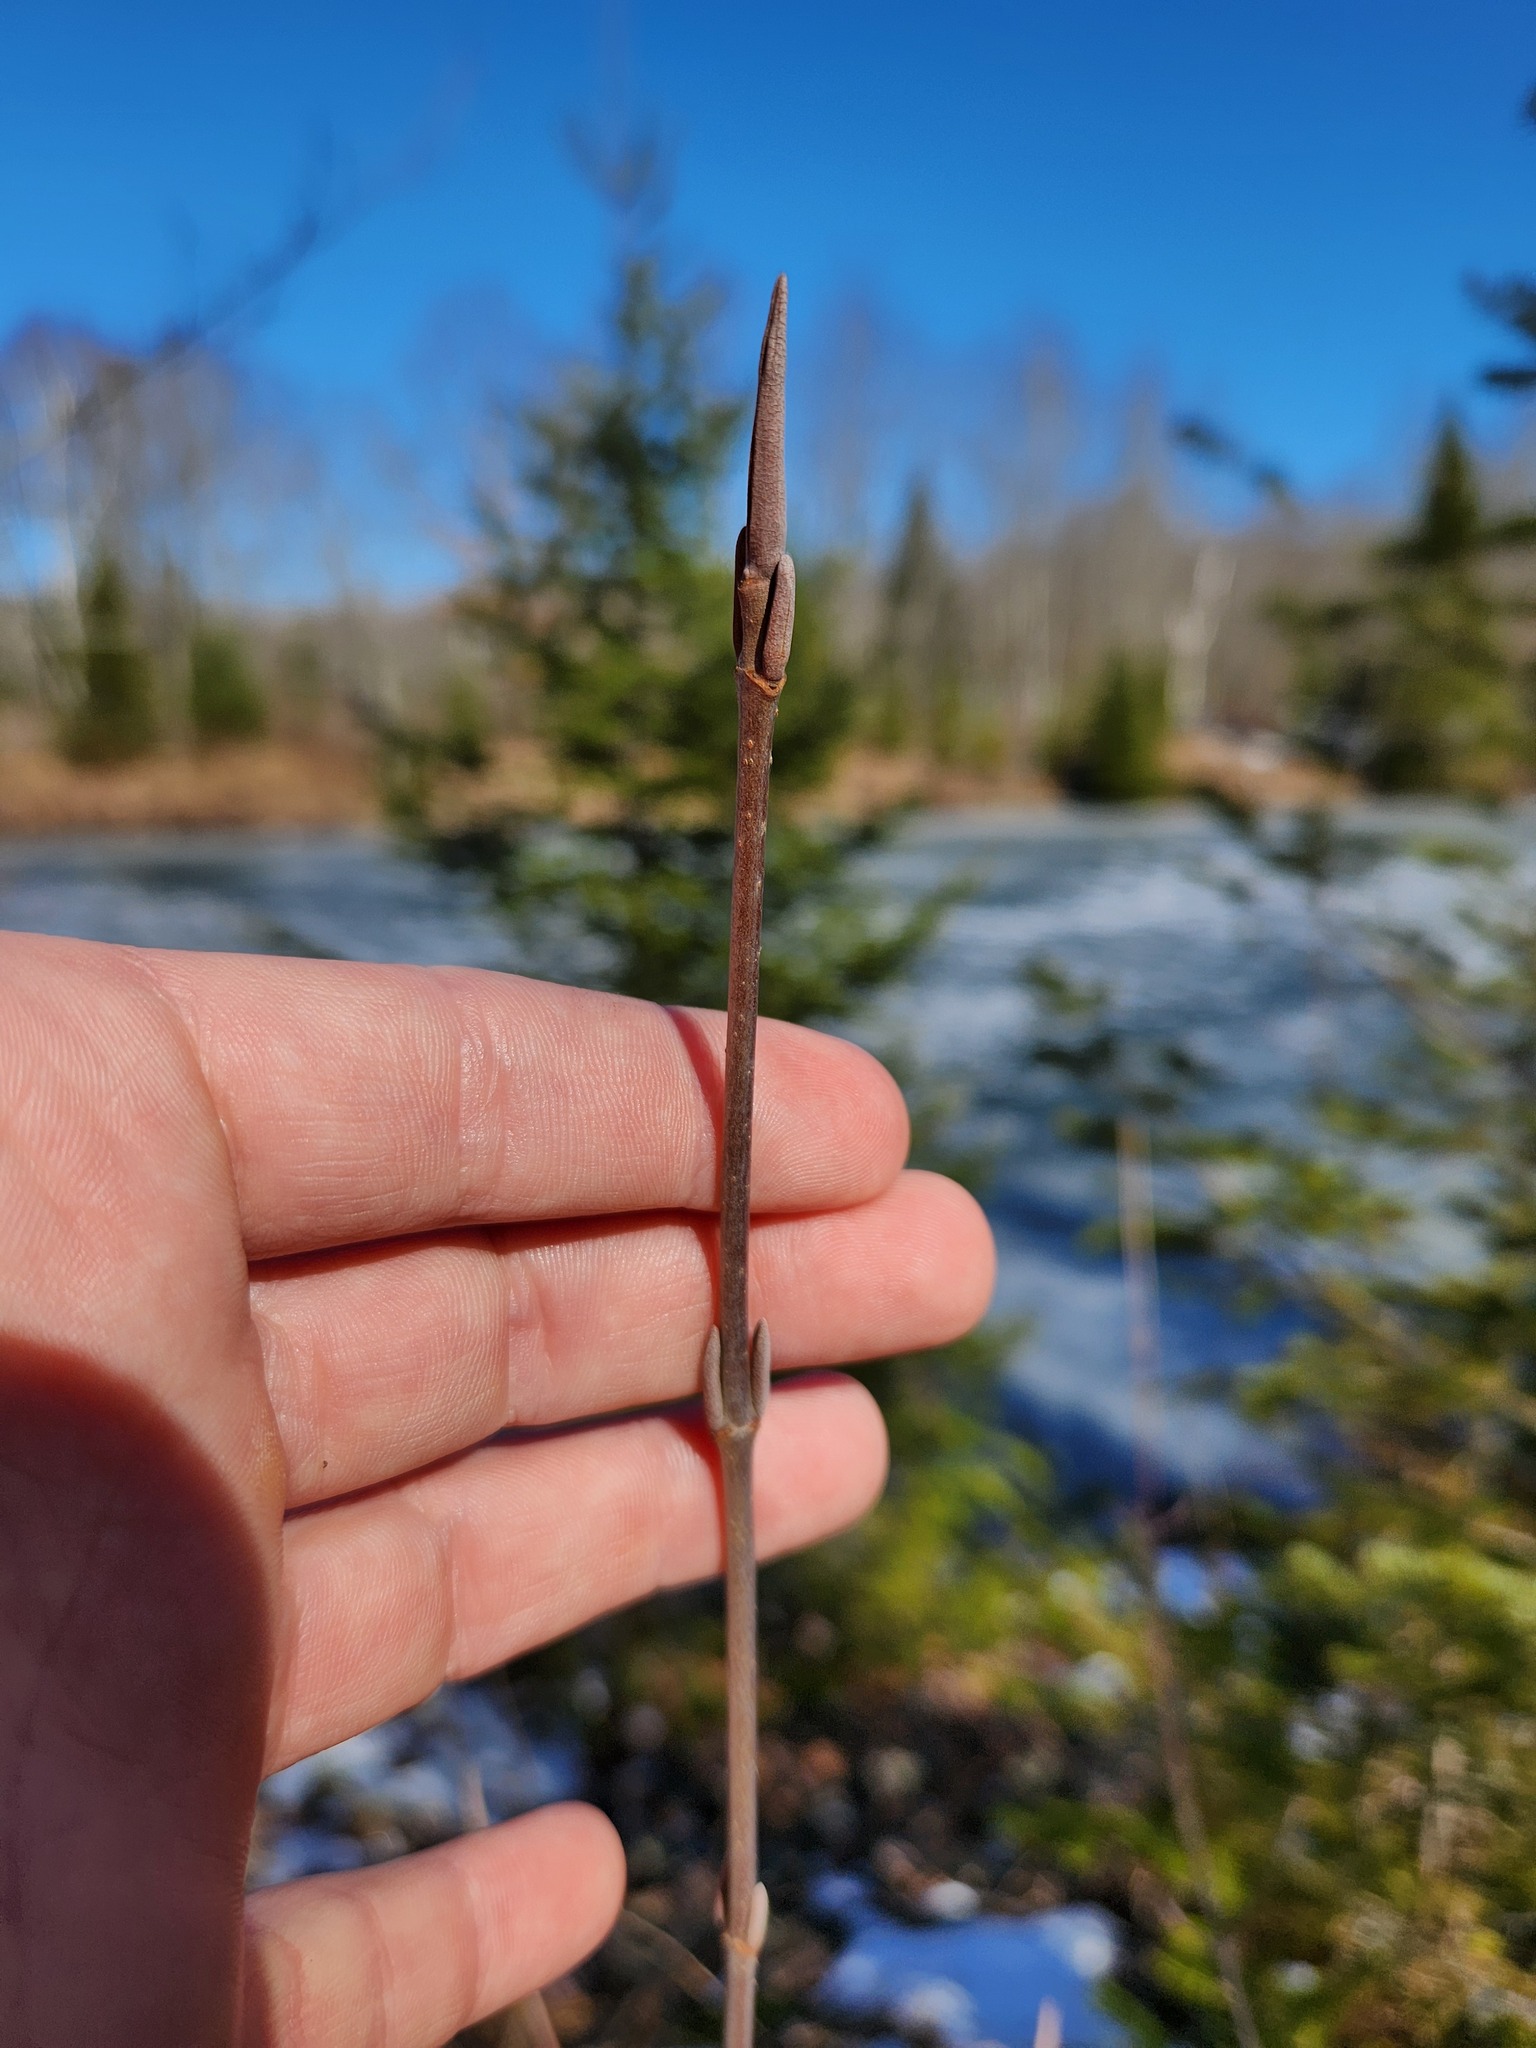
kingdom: Plantae
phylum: Tracheophyta
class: Magnoliopsida
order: Dipsacales
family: Viburnaceae
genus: Viburnum
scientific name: Viburnum lentago
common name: Black haw
